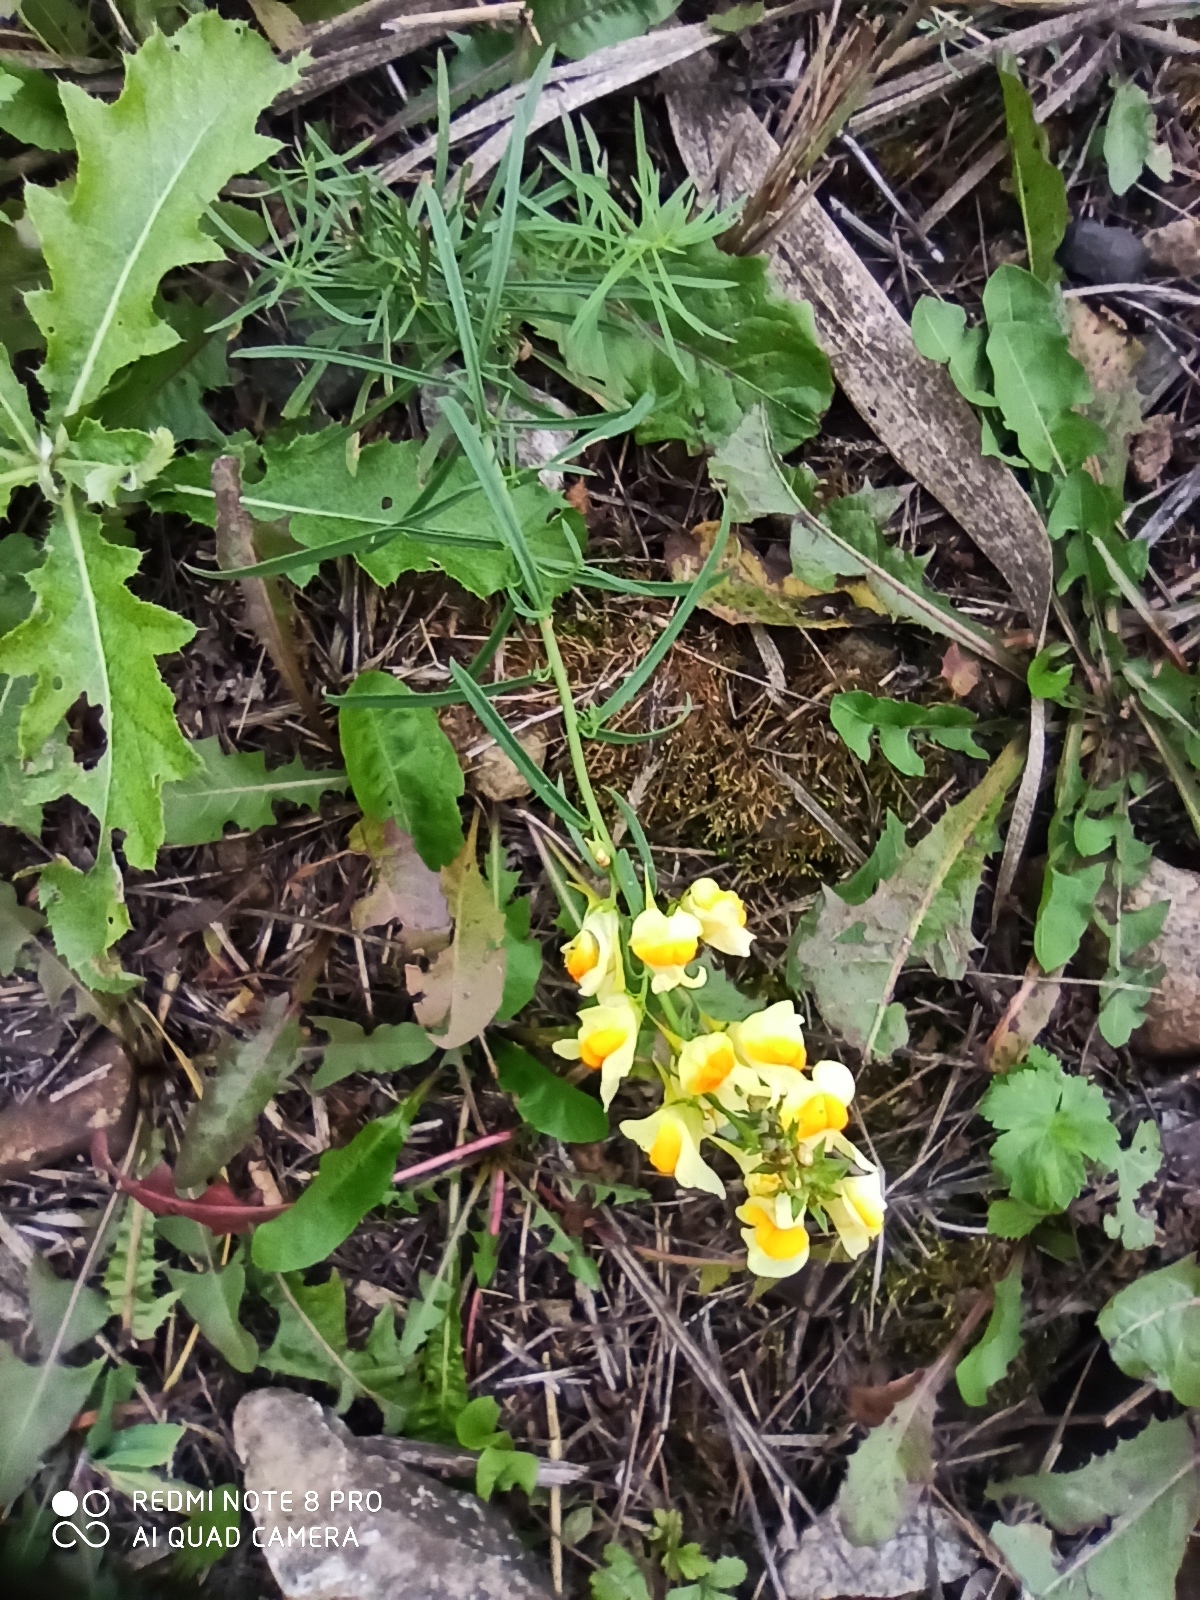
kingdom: Plantae
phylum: Tracheophyta
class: Magnoliopsida
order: Lamiales
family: Plantaginaceae
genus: Linaria
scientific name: Linaria vulgaris
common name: Butter and eggs
